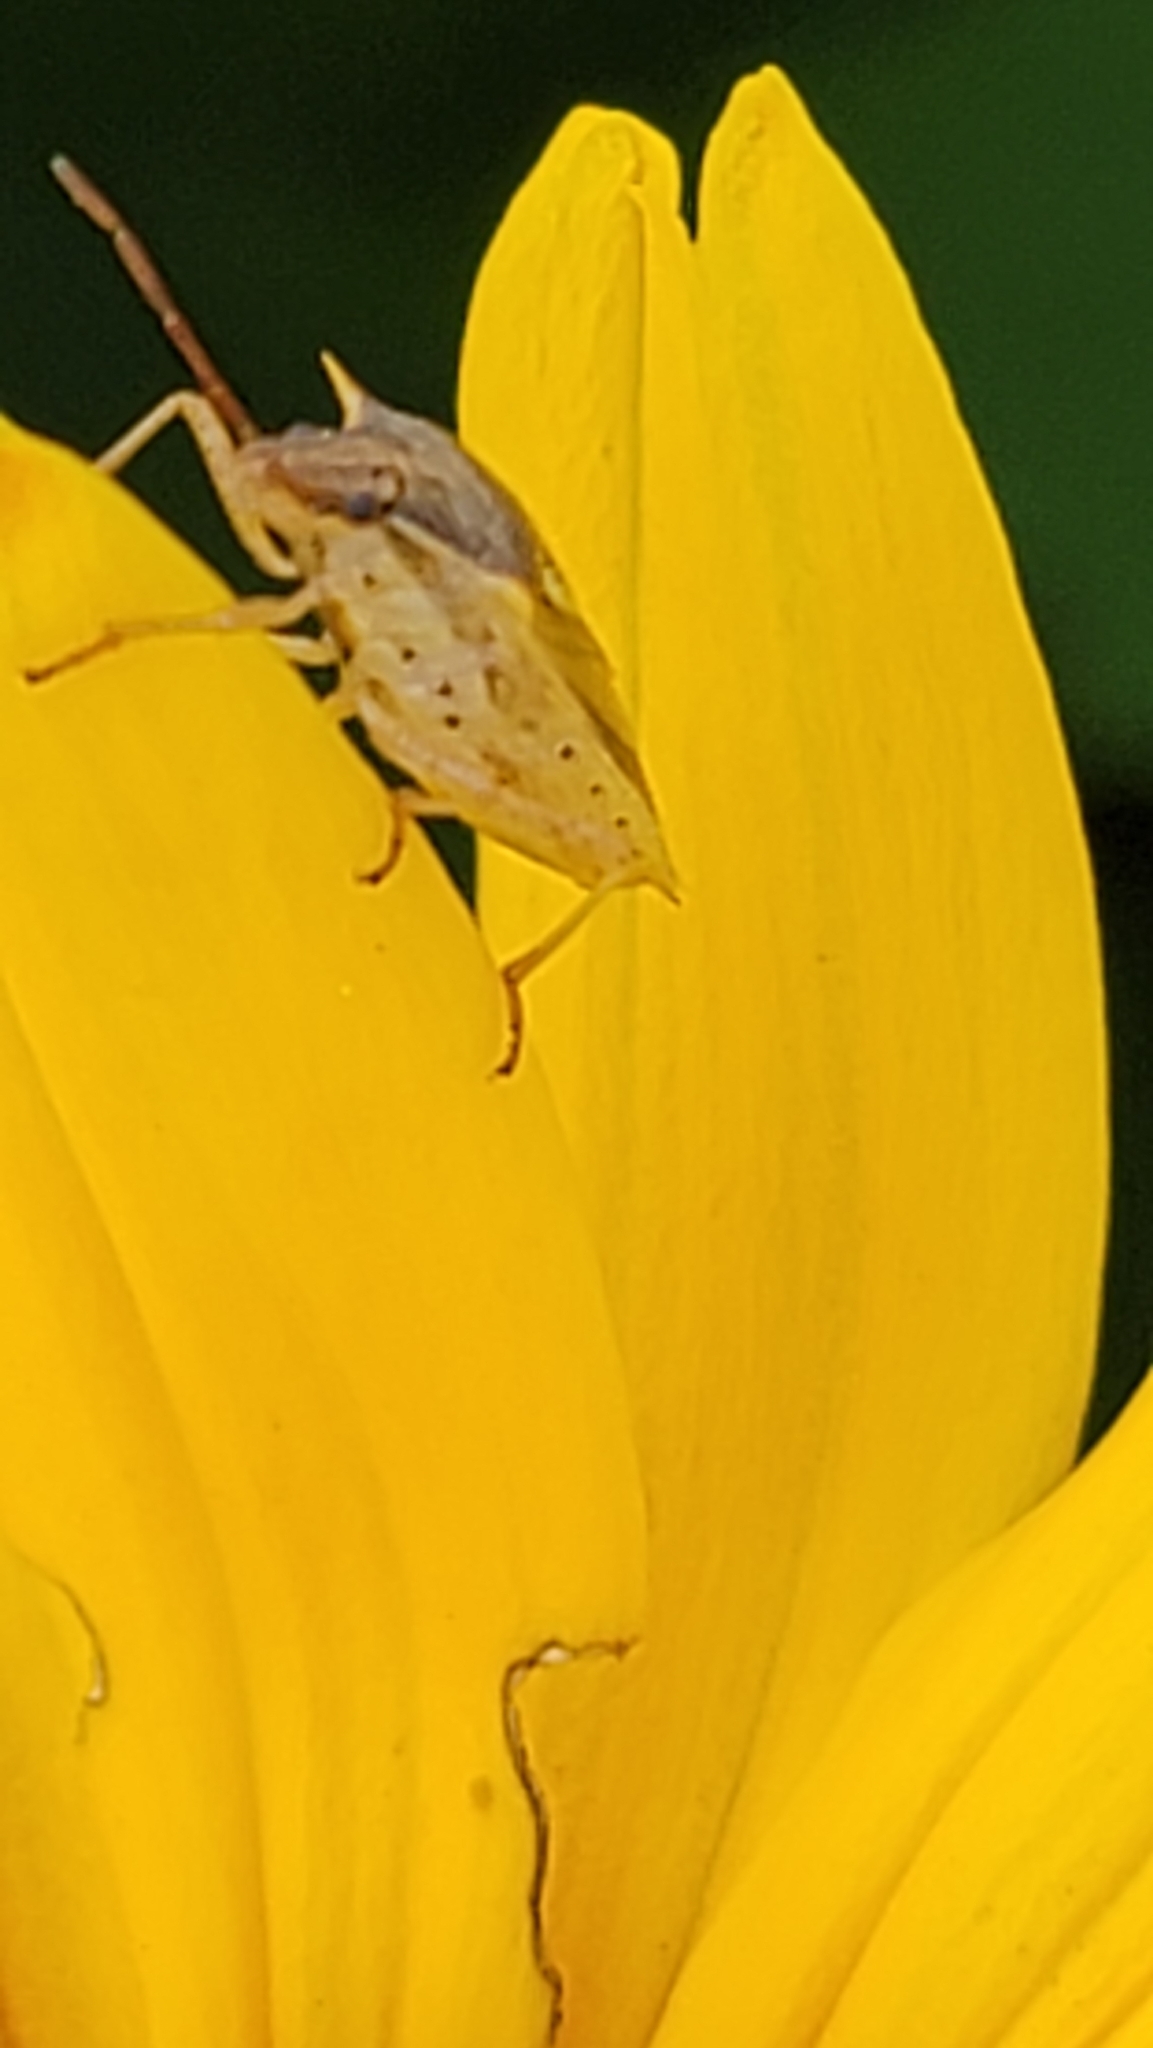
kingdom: Animalia
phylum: Arthropoda
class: Insecta
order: Hemiptera
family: Pentatomidae
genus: Oebalus
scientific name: Oebalus pugnax
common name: Rice stink bug
